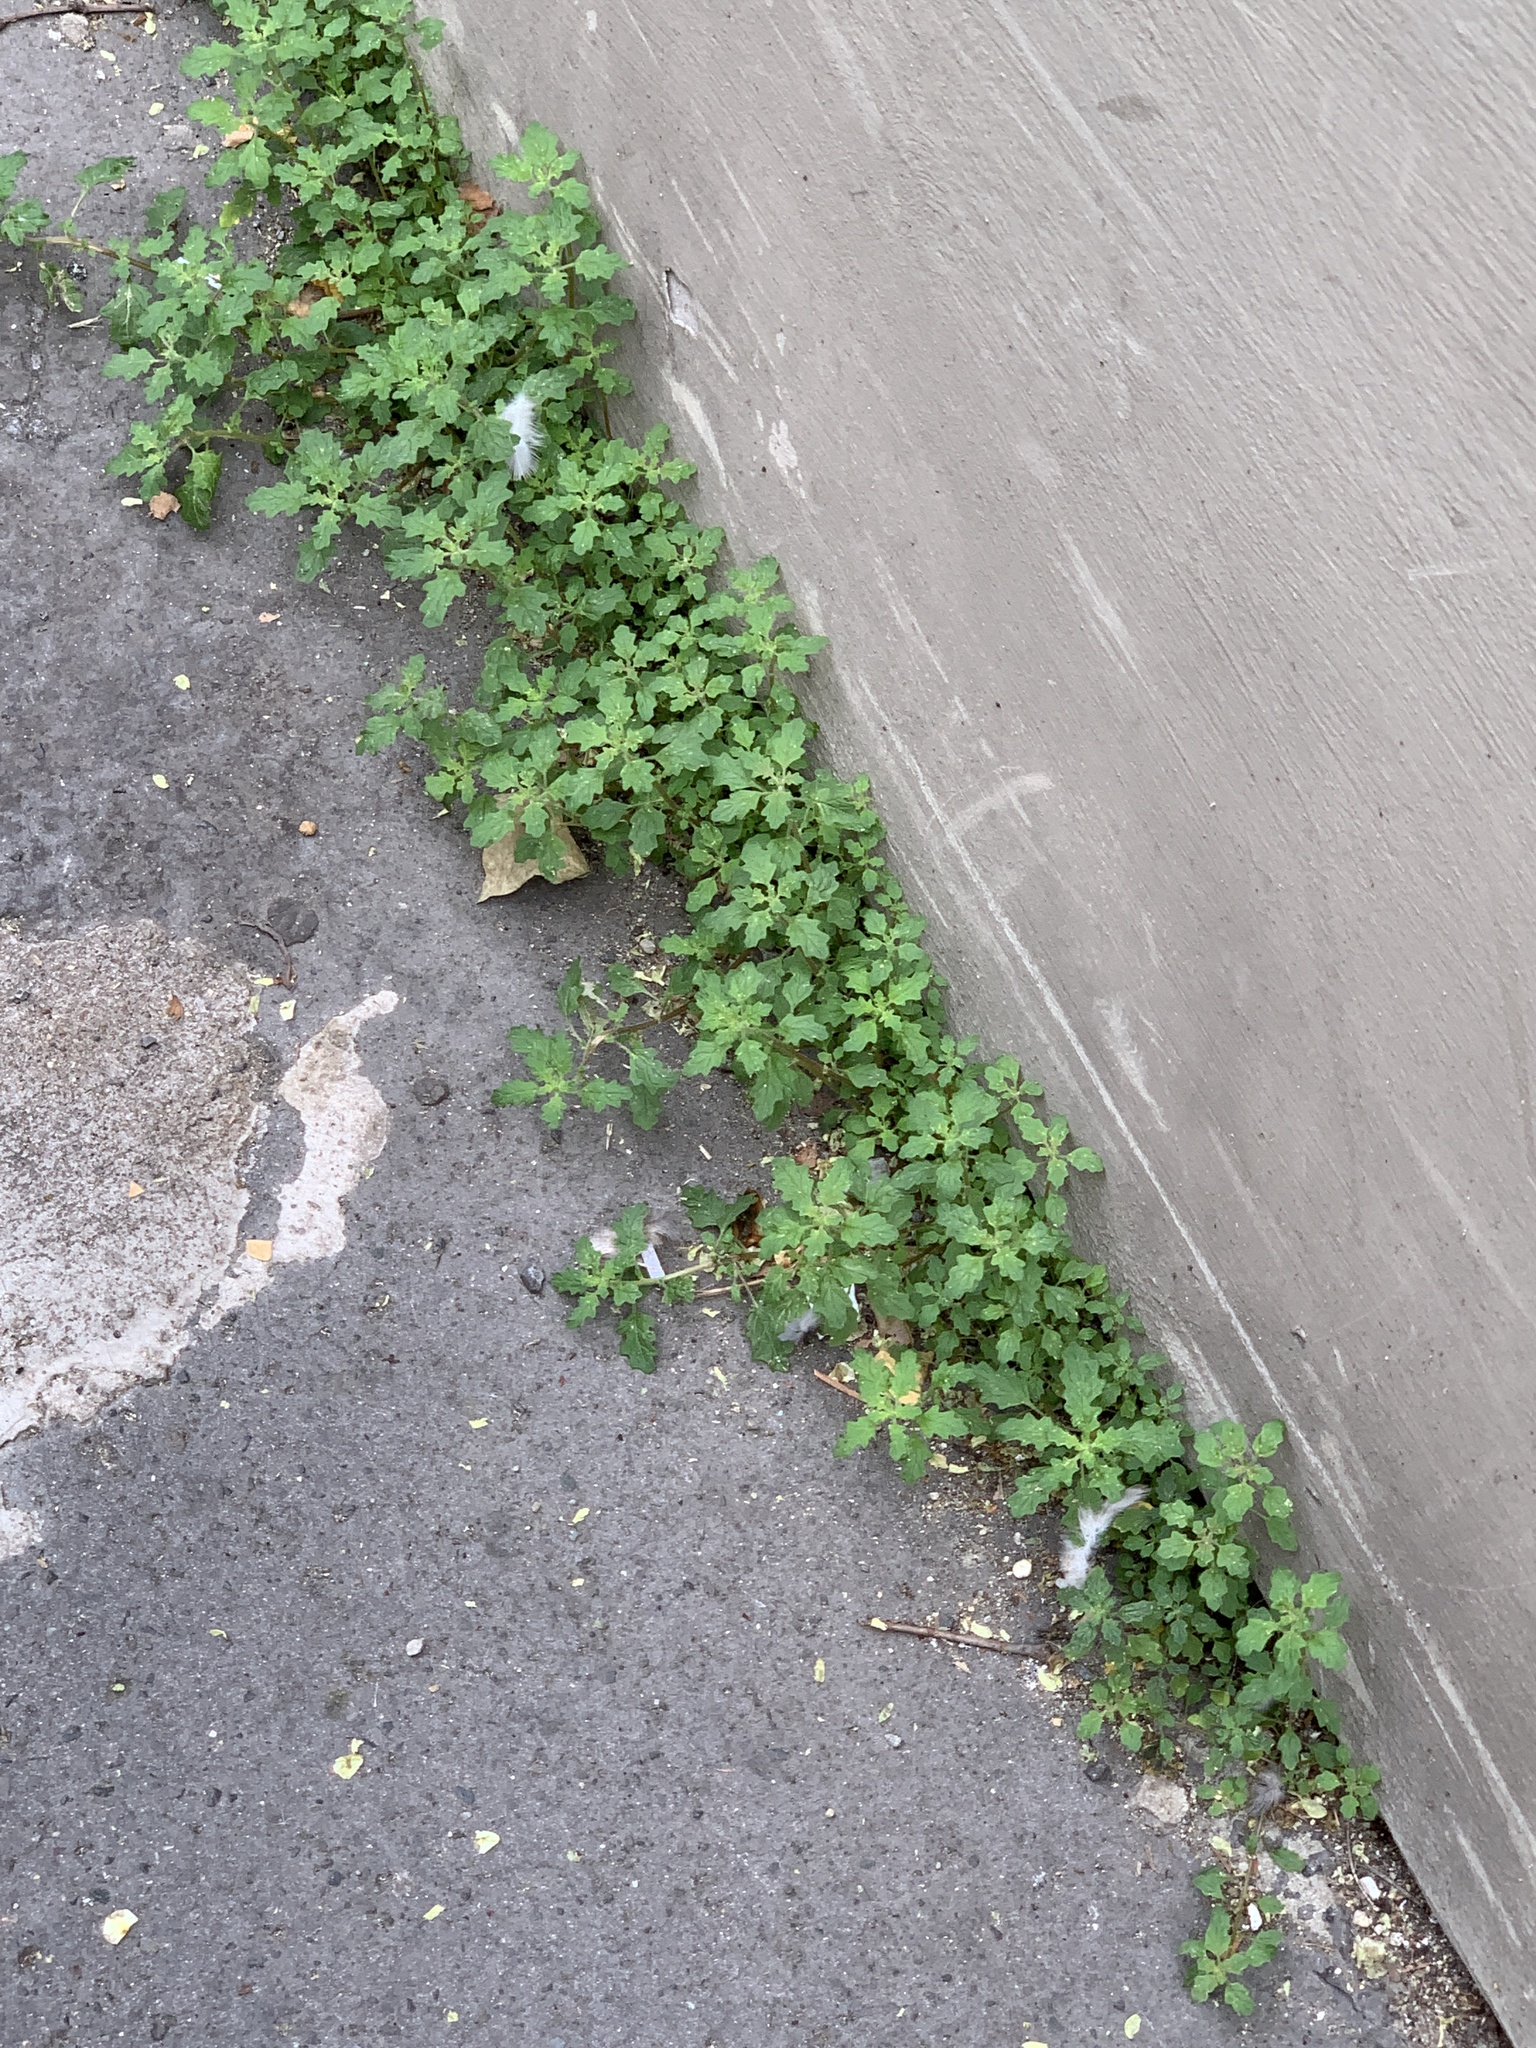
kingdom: Plantae
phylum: Tracheophyta
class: Magnoliopsida
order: Caryophyllales
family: Amaranthaceae
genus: Dysphania
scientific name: Dysphania pumilio
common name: Clammy goosefoot
